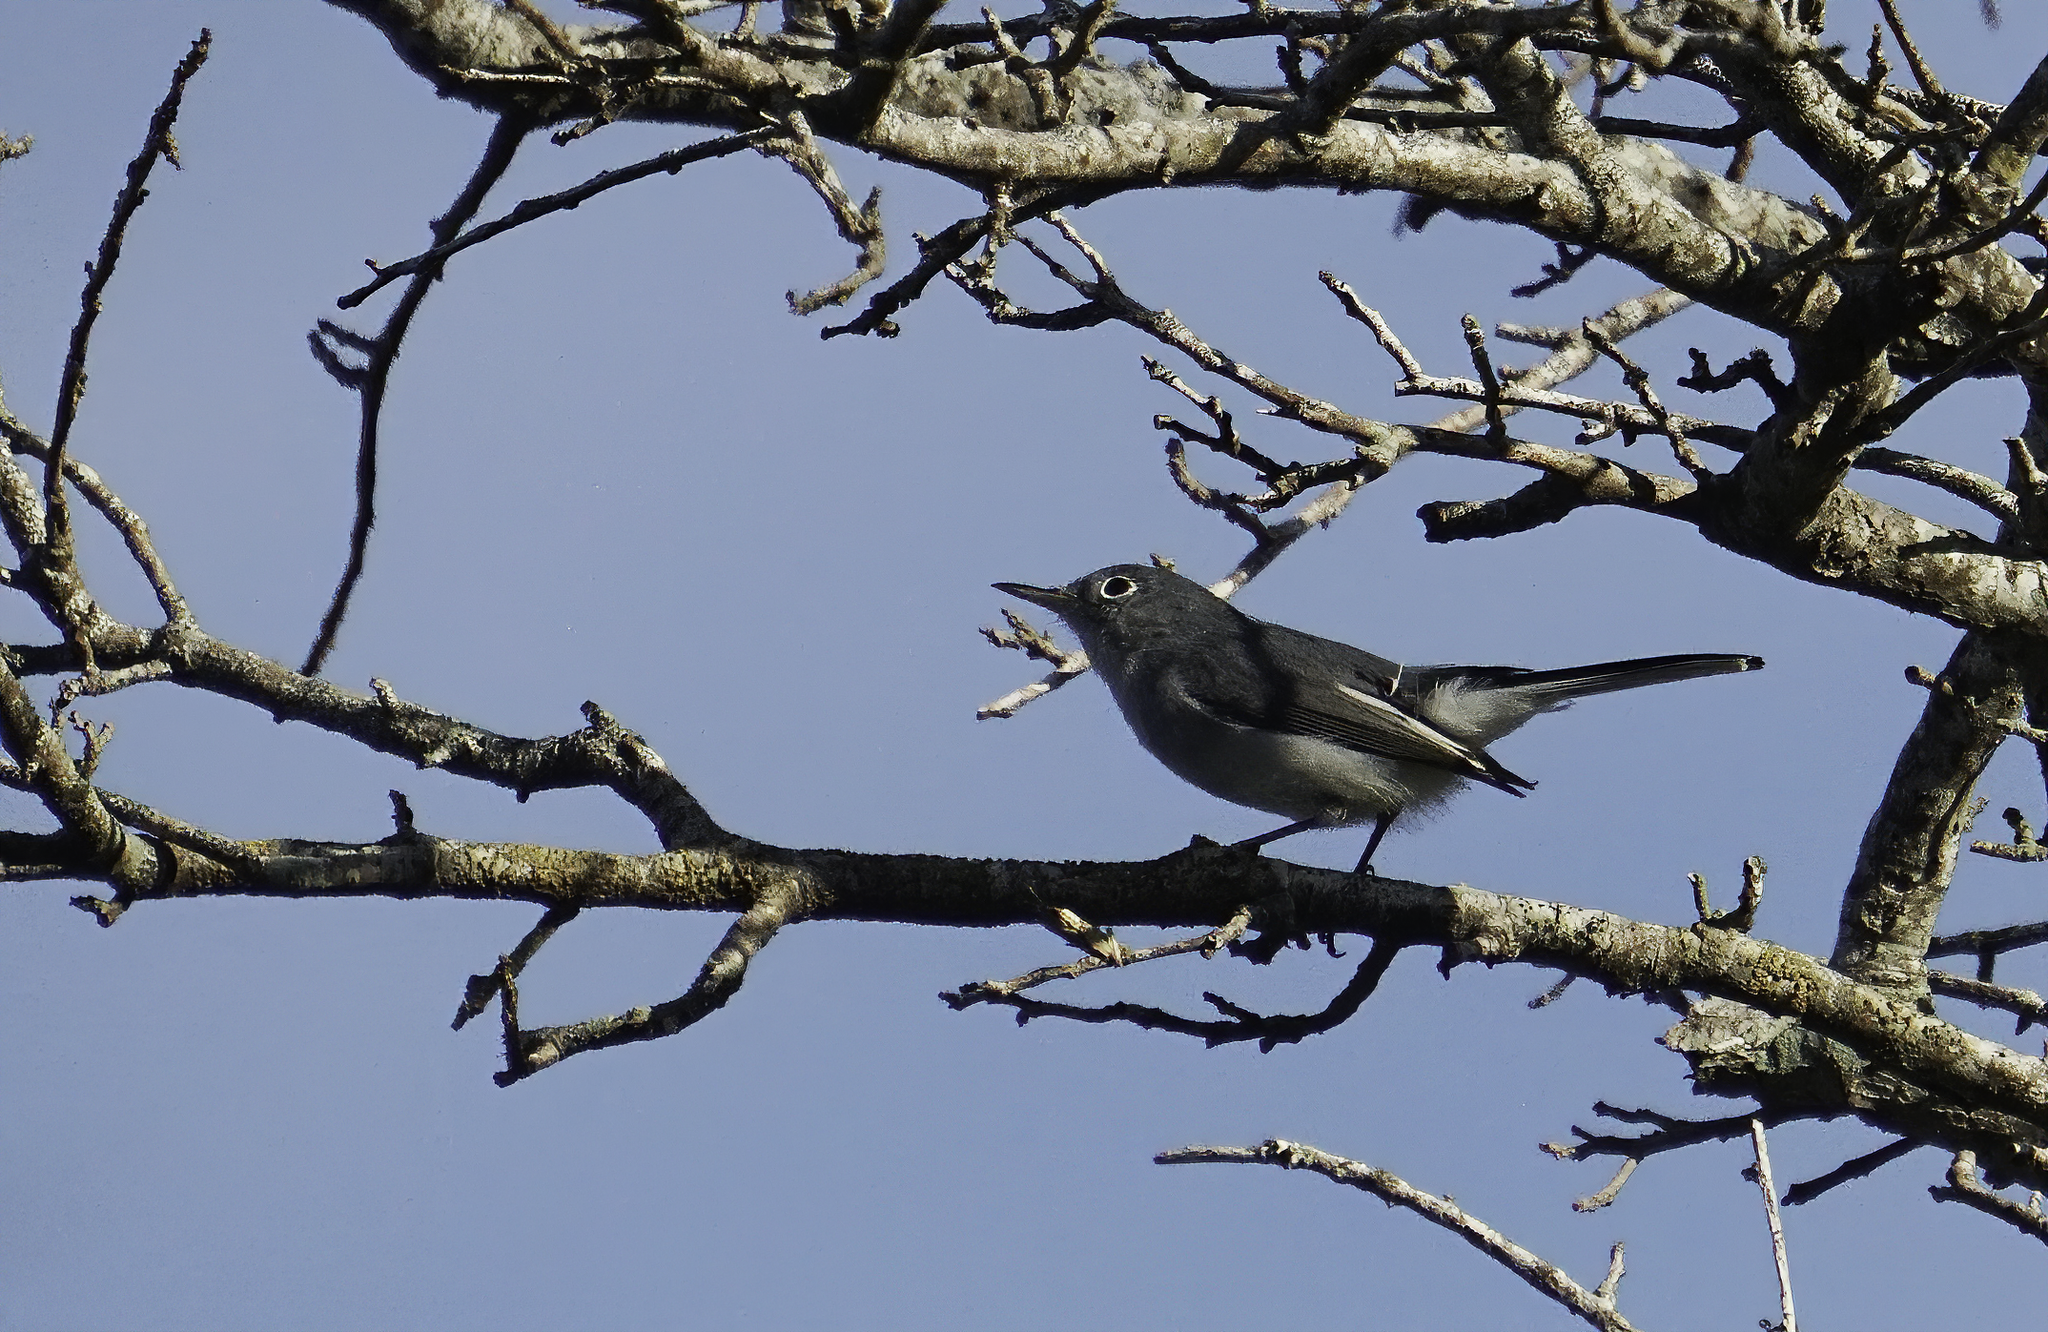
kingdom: Animalia
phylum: Chordata
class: Aves
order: Passeriformes
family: Polioptilidae
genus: Polioptila
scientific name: Polioptila caerulea
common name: Blue-gray gnatcatcher
